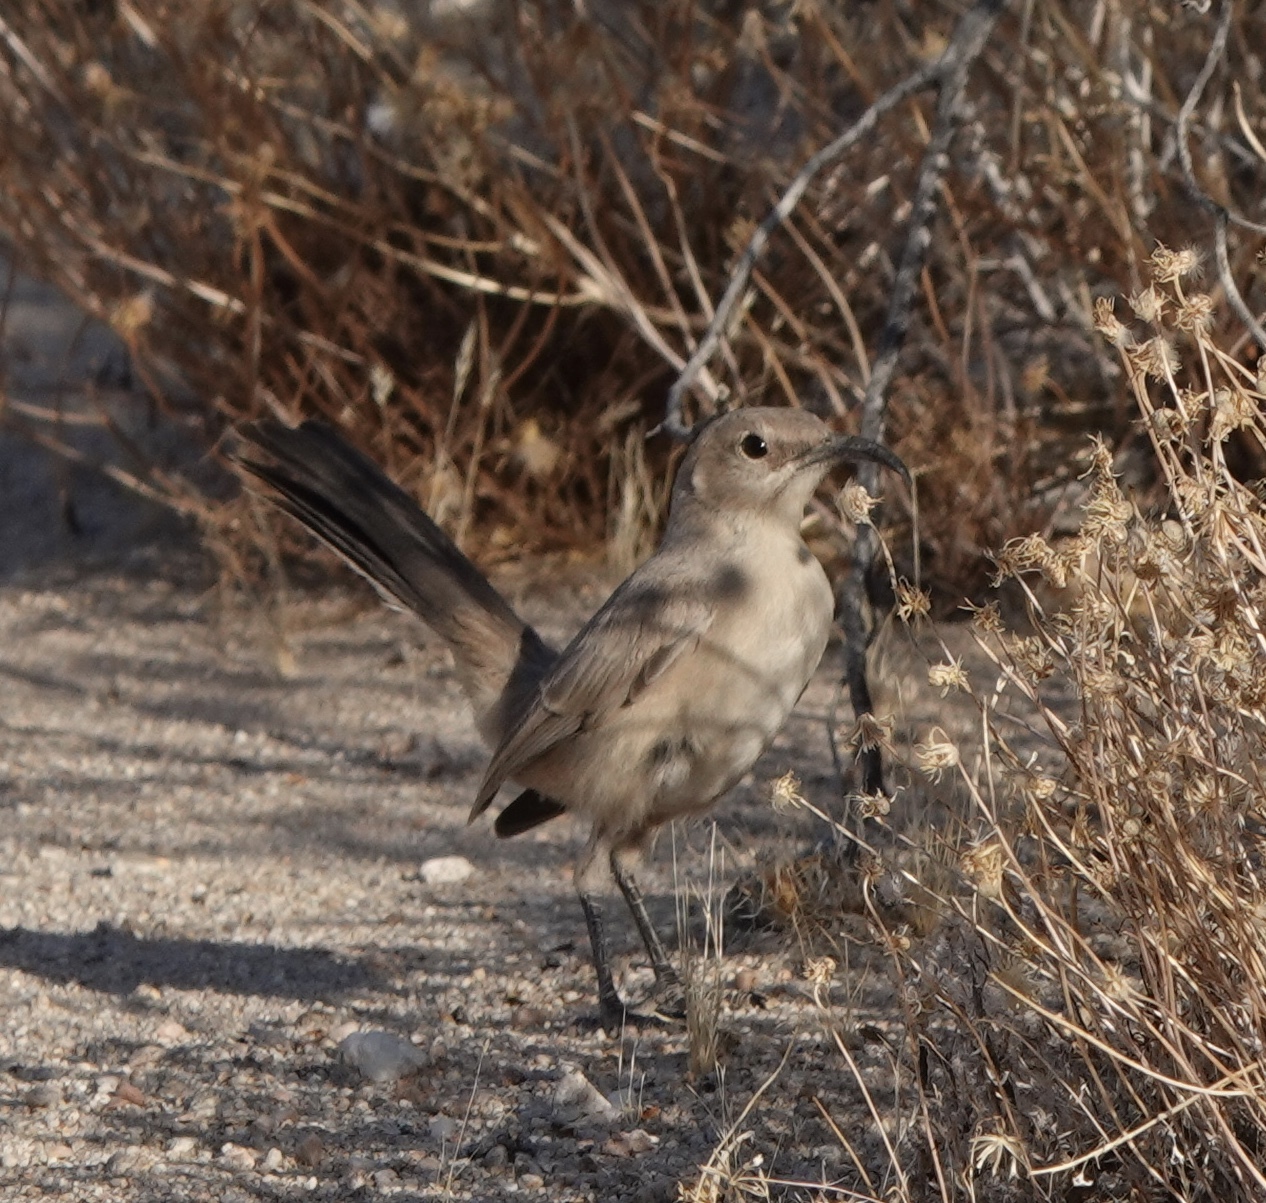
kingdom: Animalia
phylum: Chordata
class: Aves
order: Passeriformes
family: Mimidae
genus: Toxostoma
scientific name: Toxostoma lecontei
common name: Le conte's thrasher
